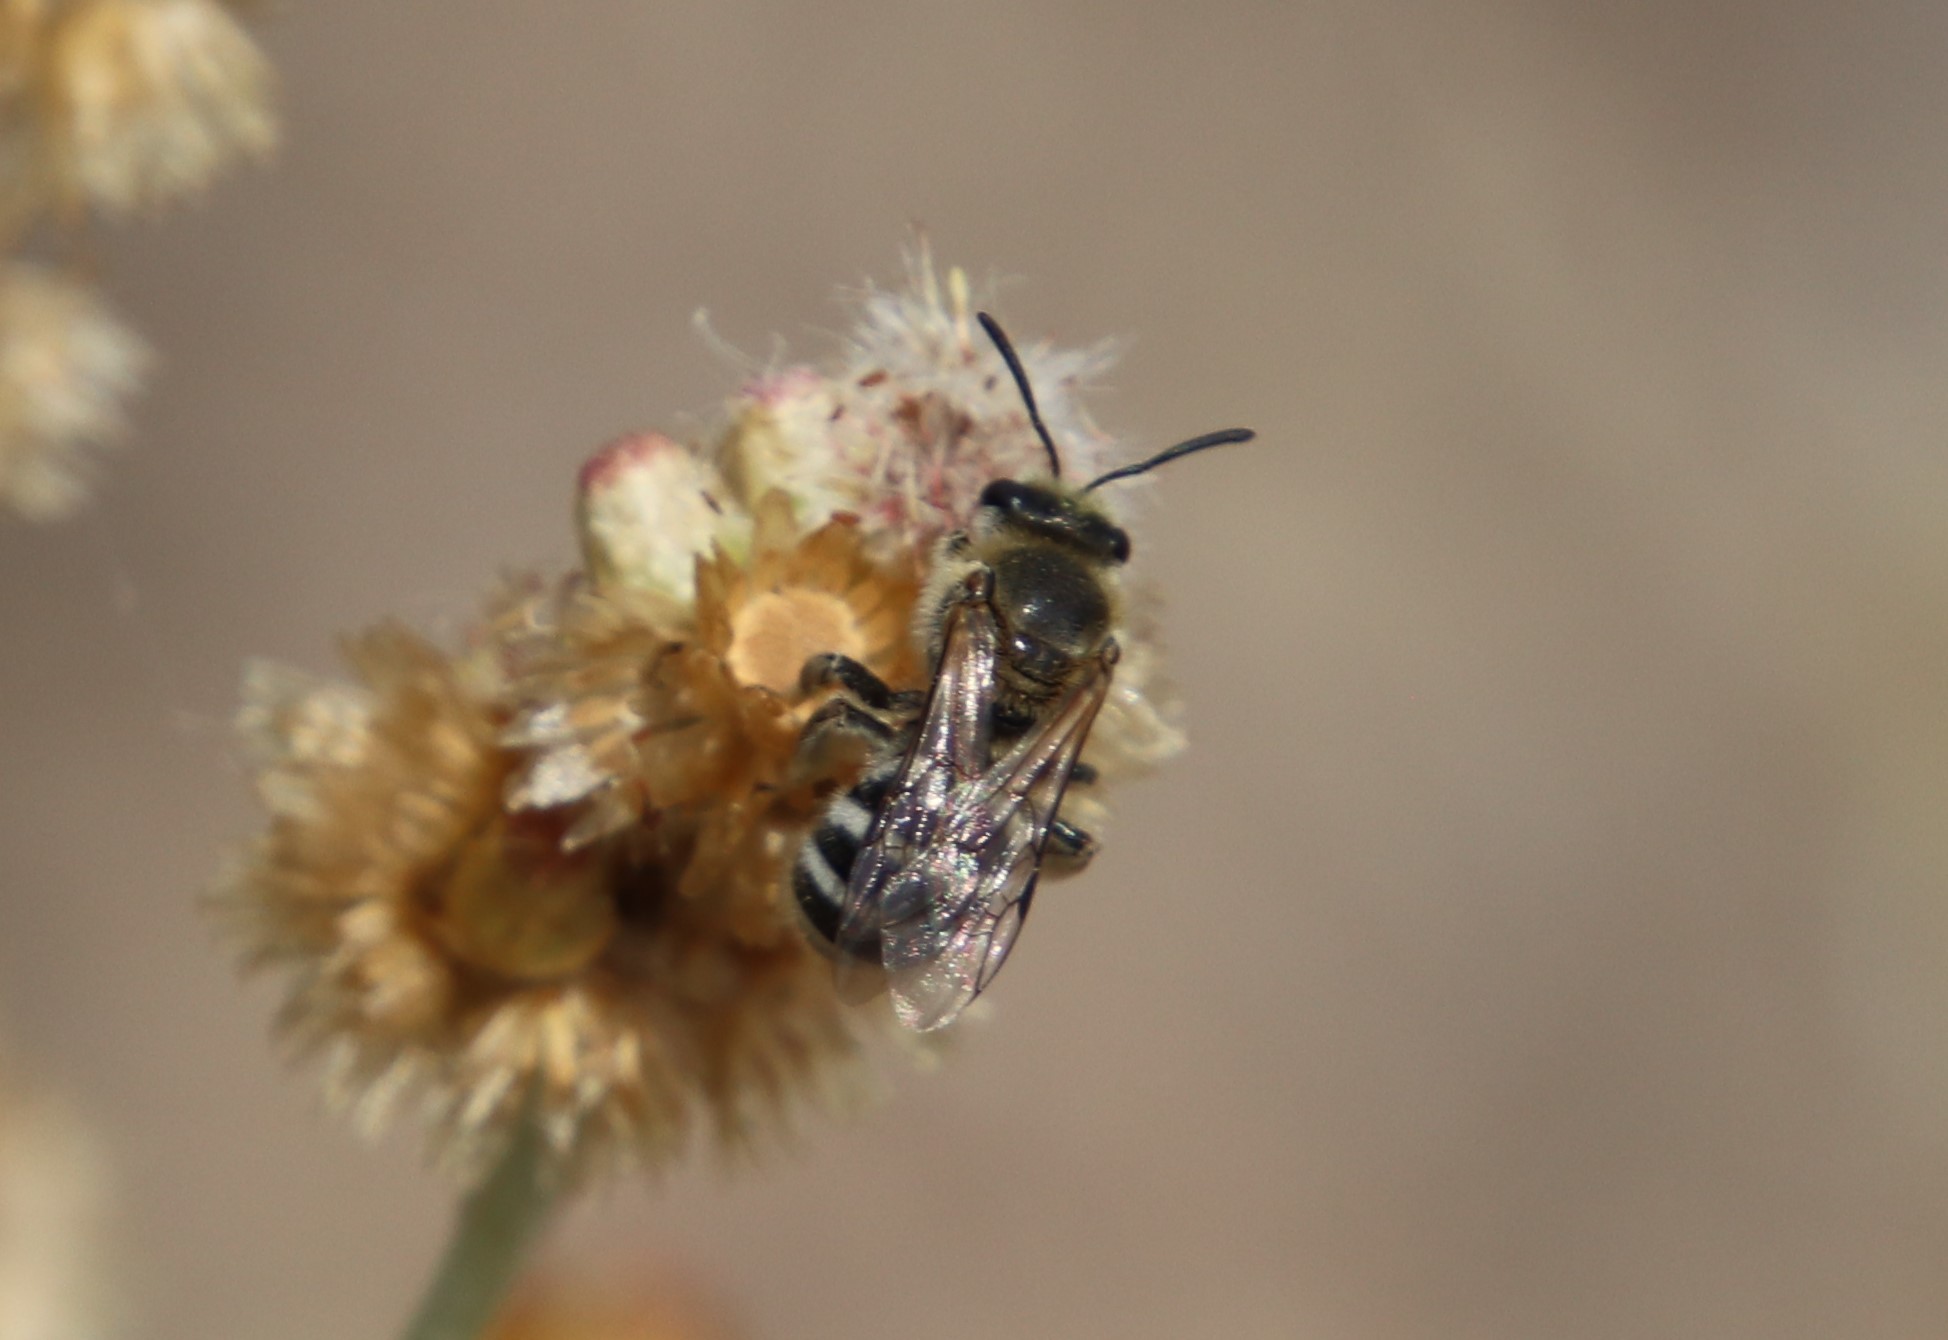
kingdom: Animalia
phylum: Arthropoda
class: Insecta
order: Hymenoptera
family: Halictidae
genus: Lasioglossum
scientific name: Lasioglossum sisymbrii
